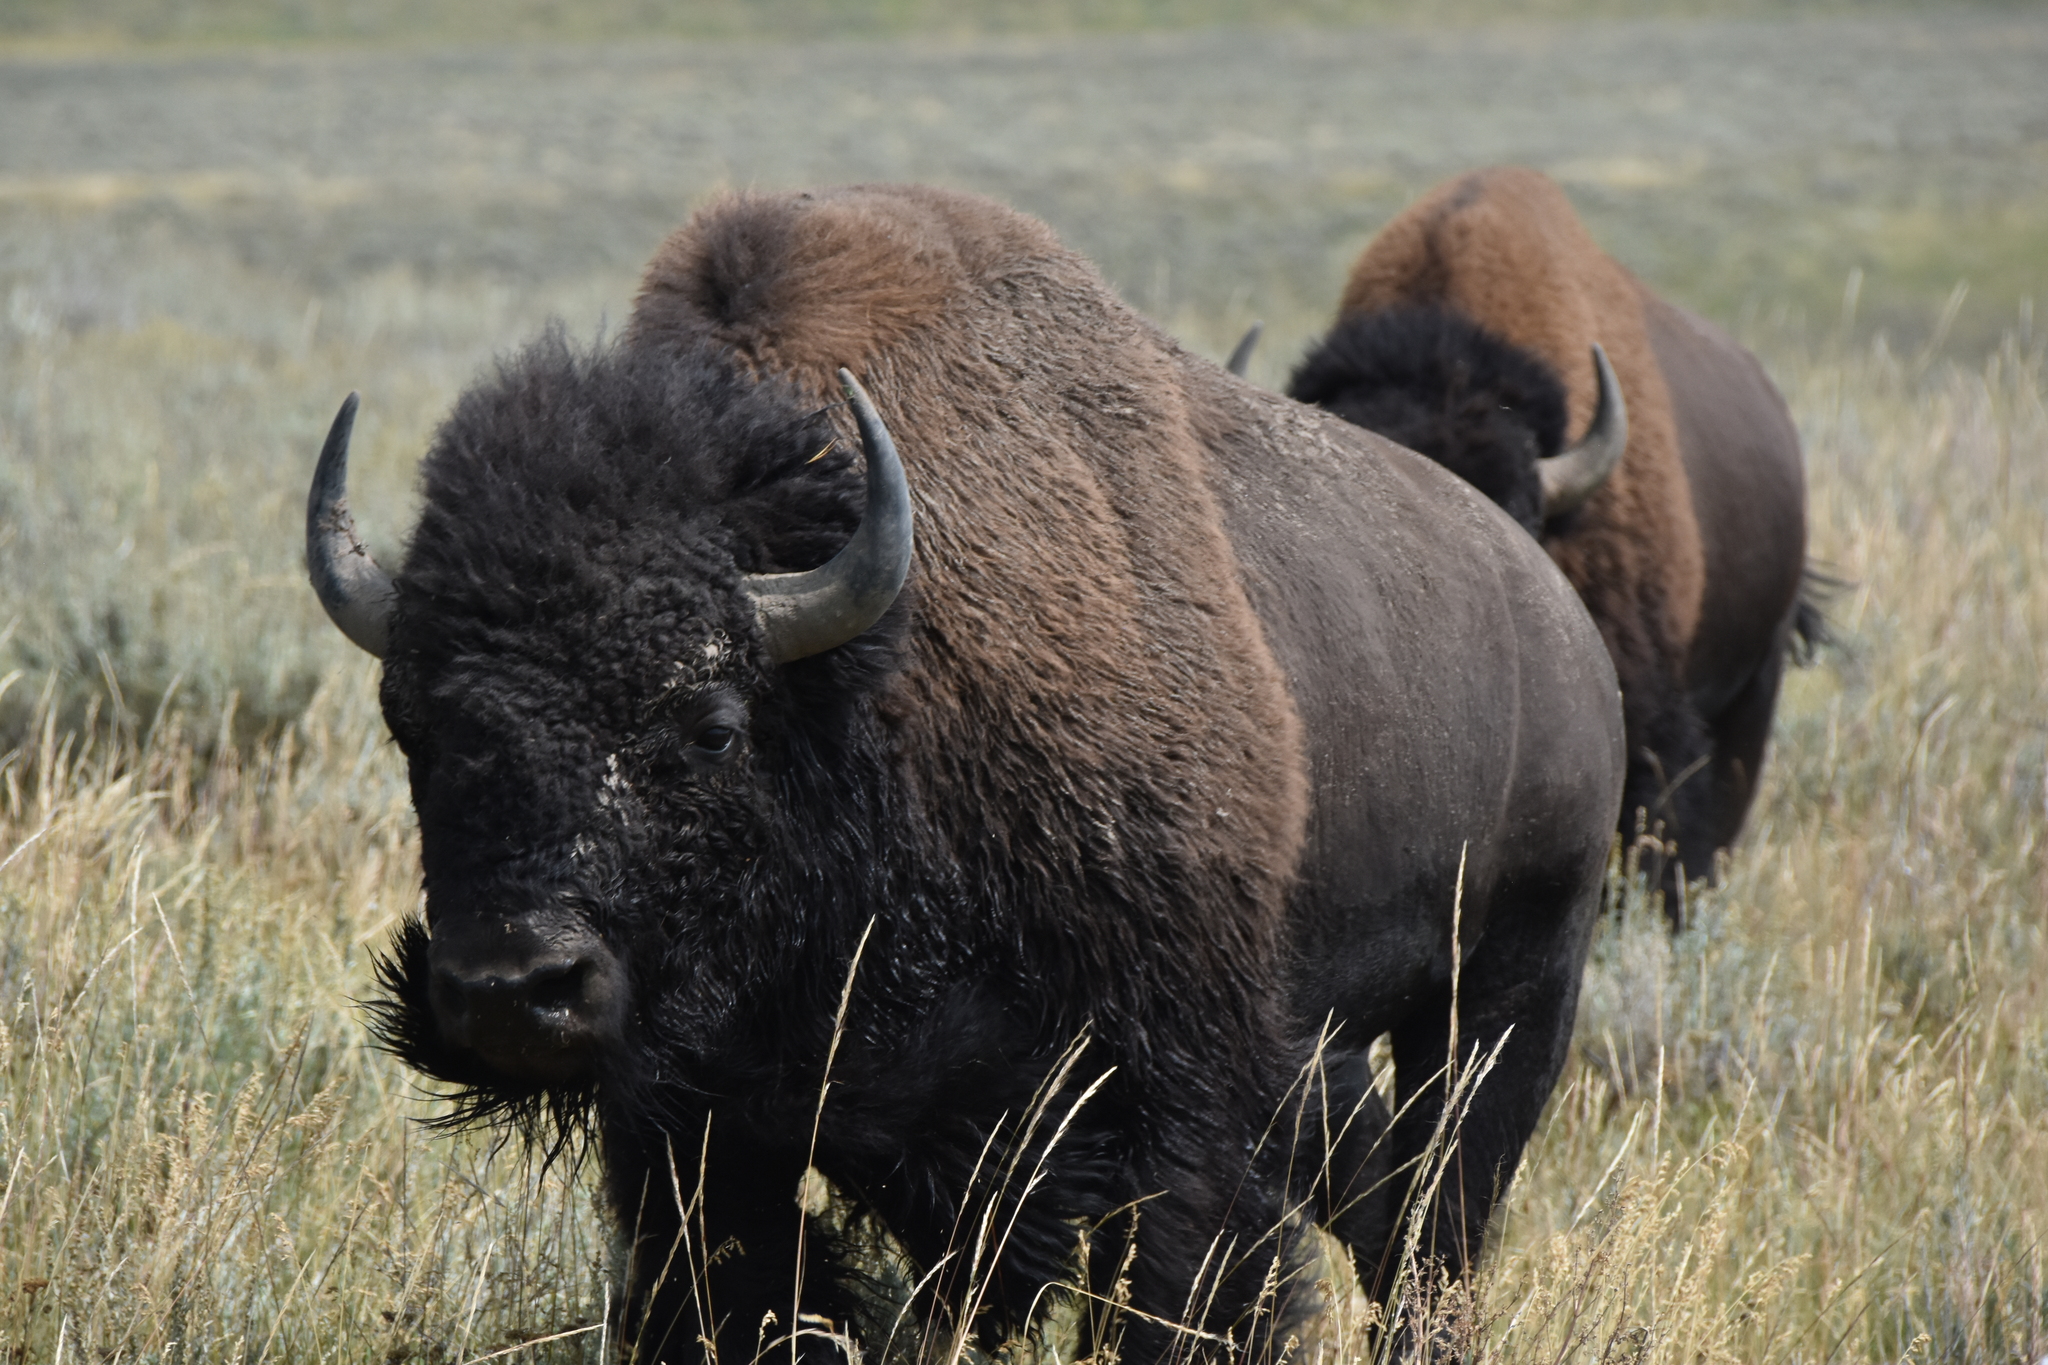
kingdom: Animalia
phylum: Chordata
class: Mammalia
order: Artiodactyla
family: Bovidae
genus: Bison
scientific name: Bison bison
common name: American bison
